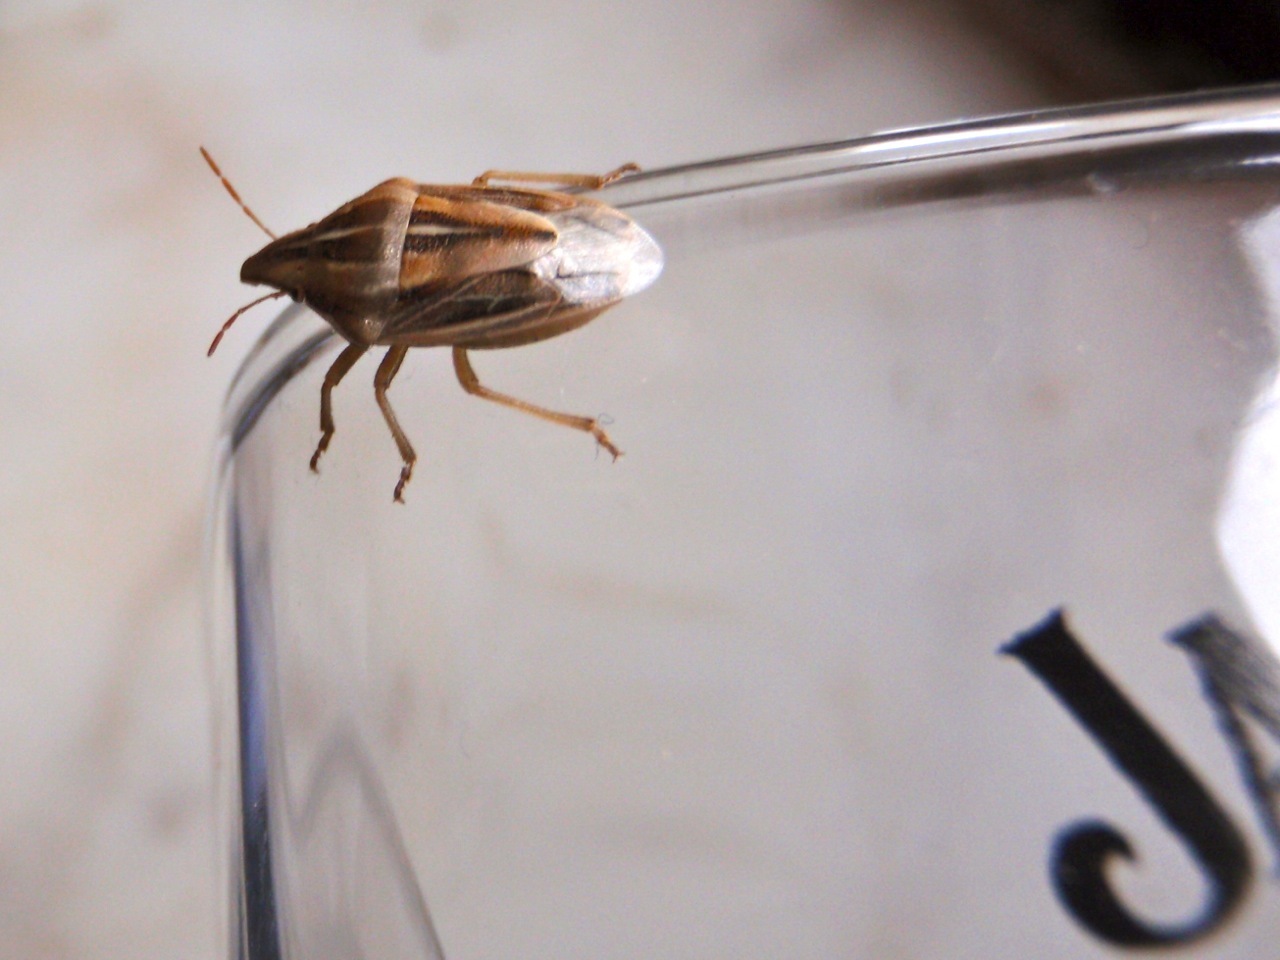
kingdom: Animalia
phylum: Arthropoda
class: Insecta
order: Hemiptera
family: Pentatomidae
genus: Aelia
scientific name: Aelia rostrata
